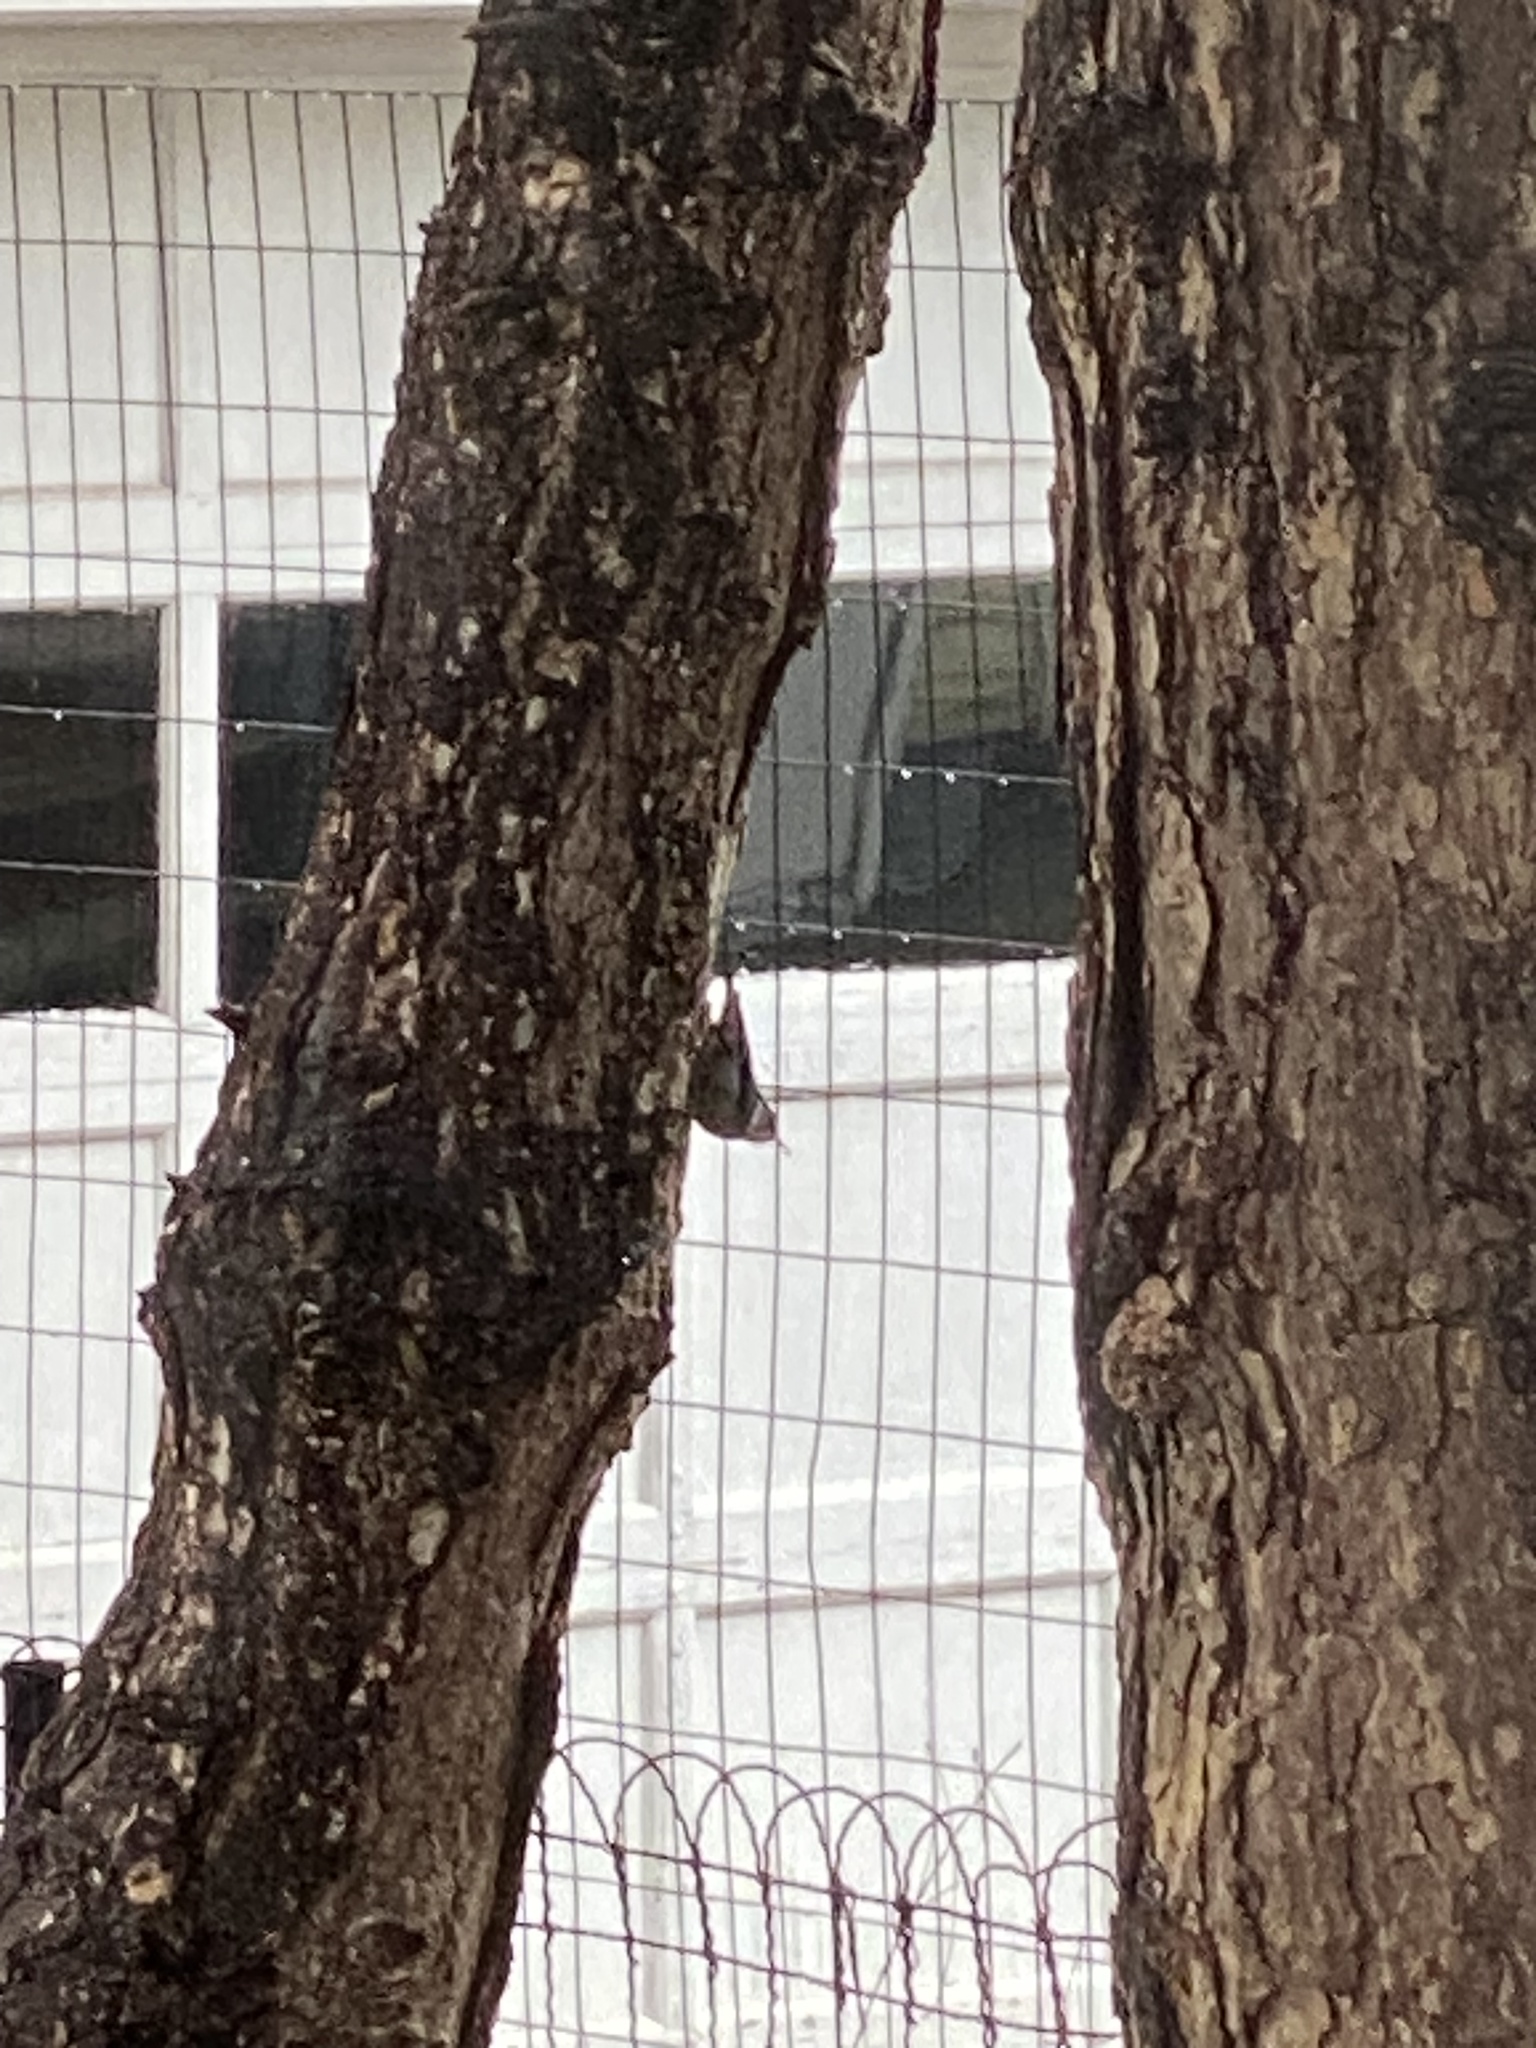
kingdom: Animalia
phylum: Chordata
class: Aves
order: Passeriformes
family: Sittidae
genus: Sitta
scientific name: Sitta carolinensis
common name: White-breasted nuthatch
